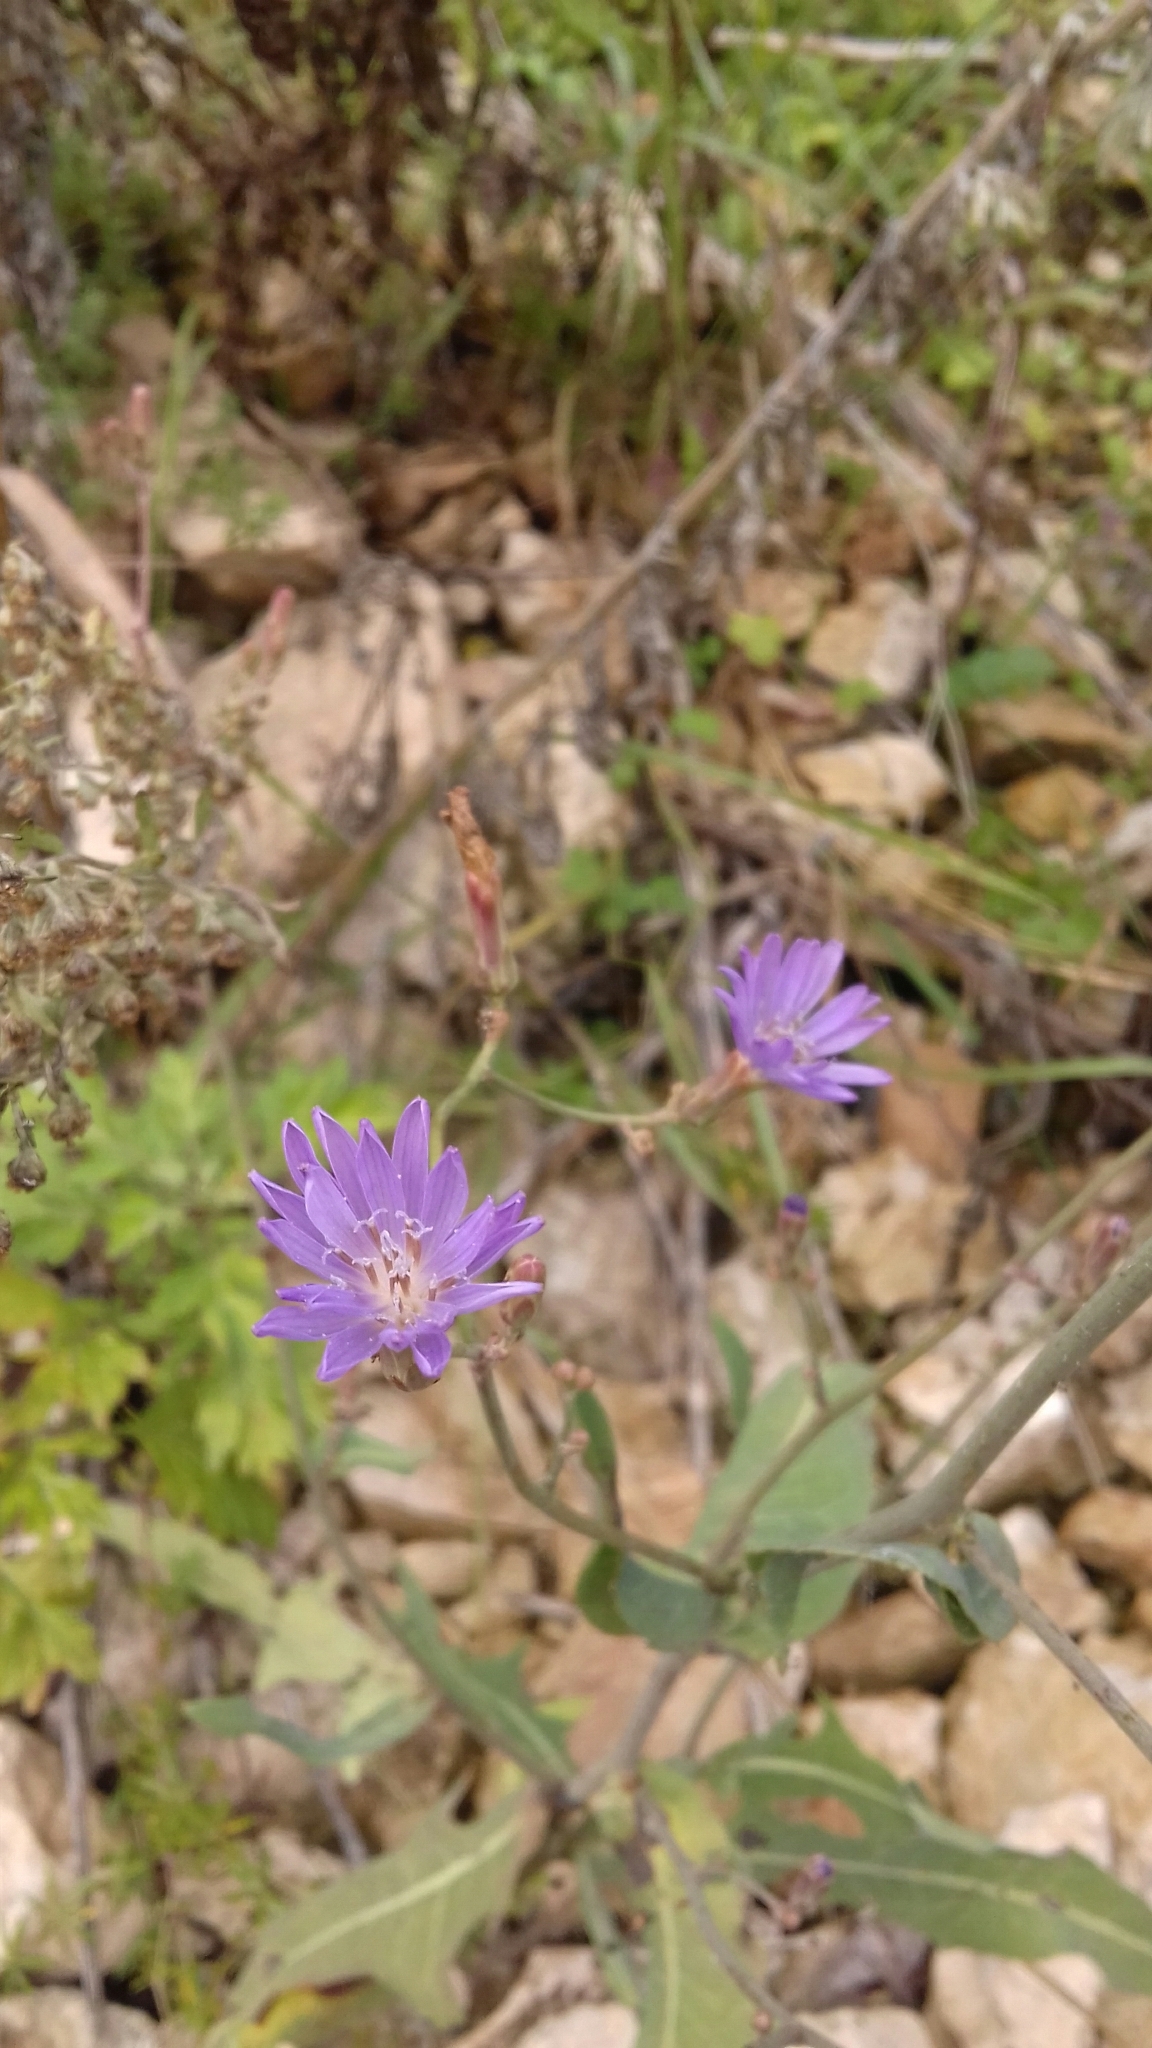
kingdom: Plantae
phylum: Tracheophyta
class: Magnoliopsida
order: Asterales
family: Asteraceae
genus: Lactuca
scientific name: Lactuca tatarica
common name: Blue lettuce
